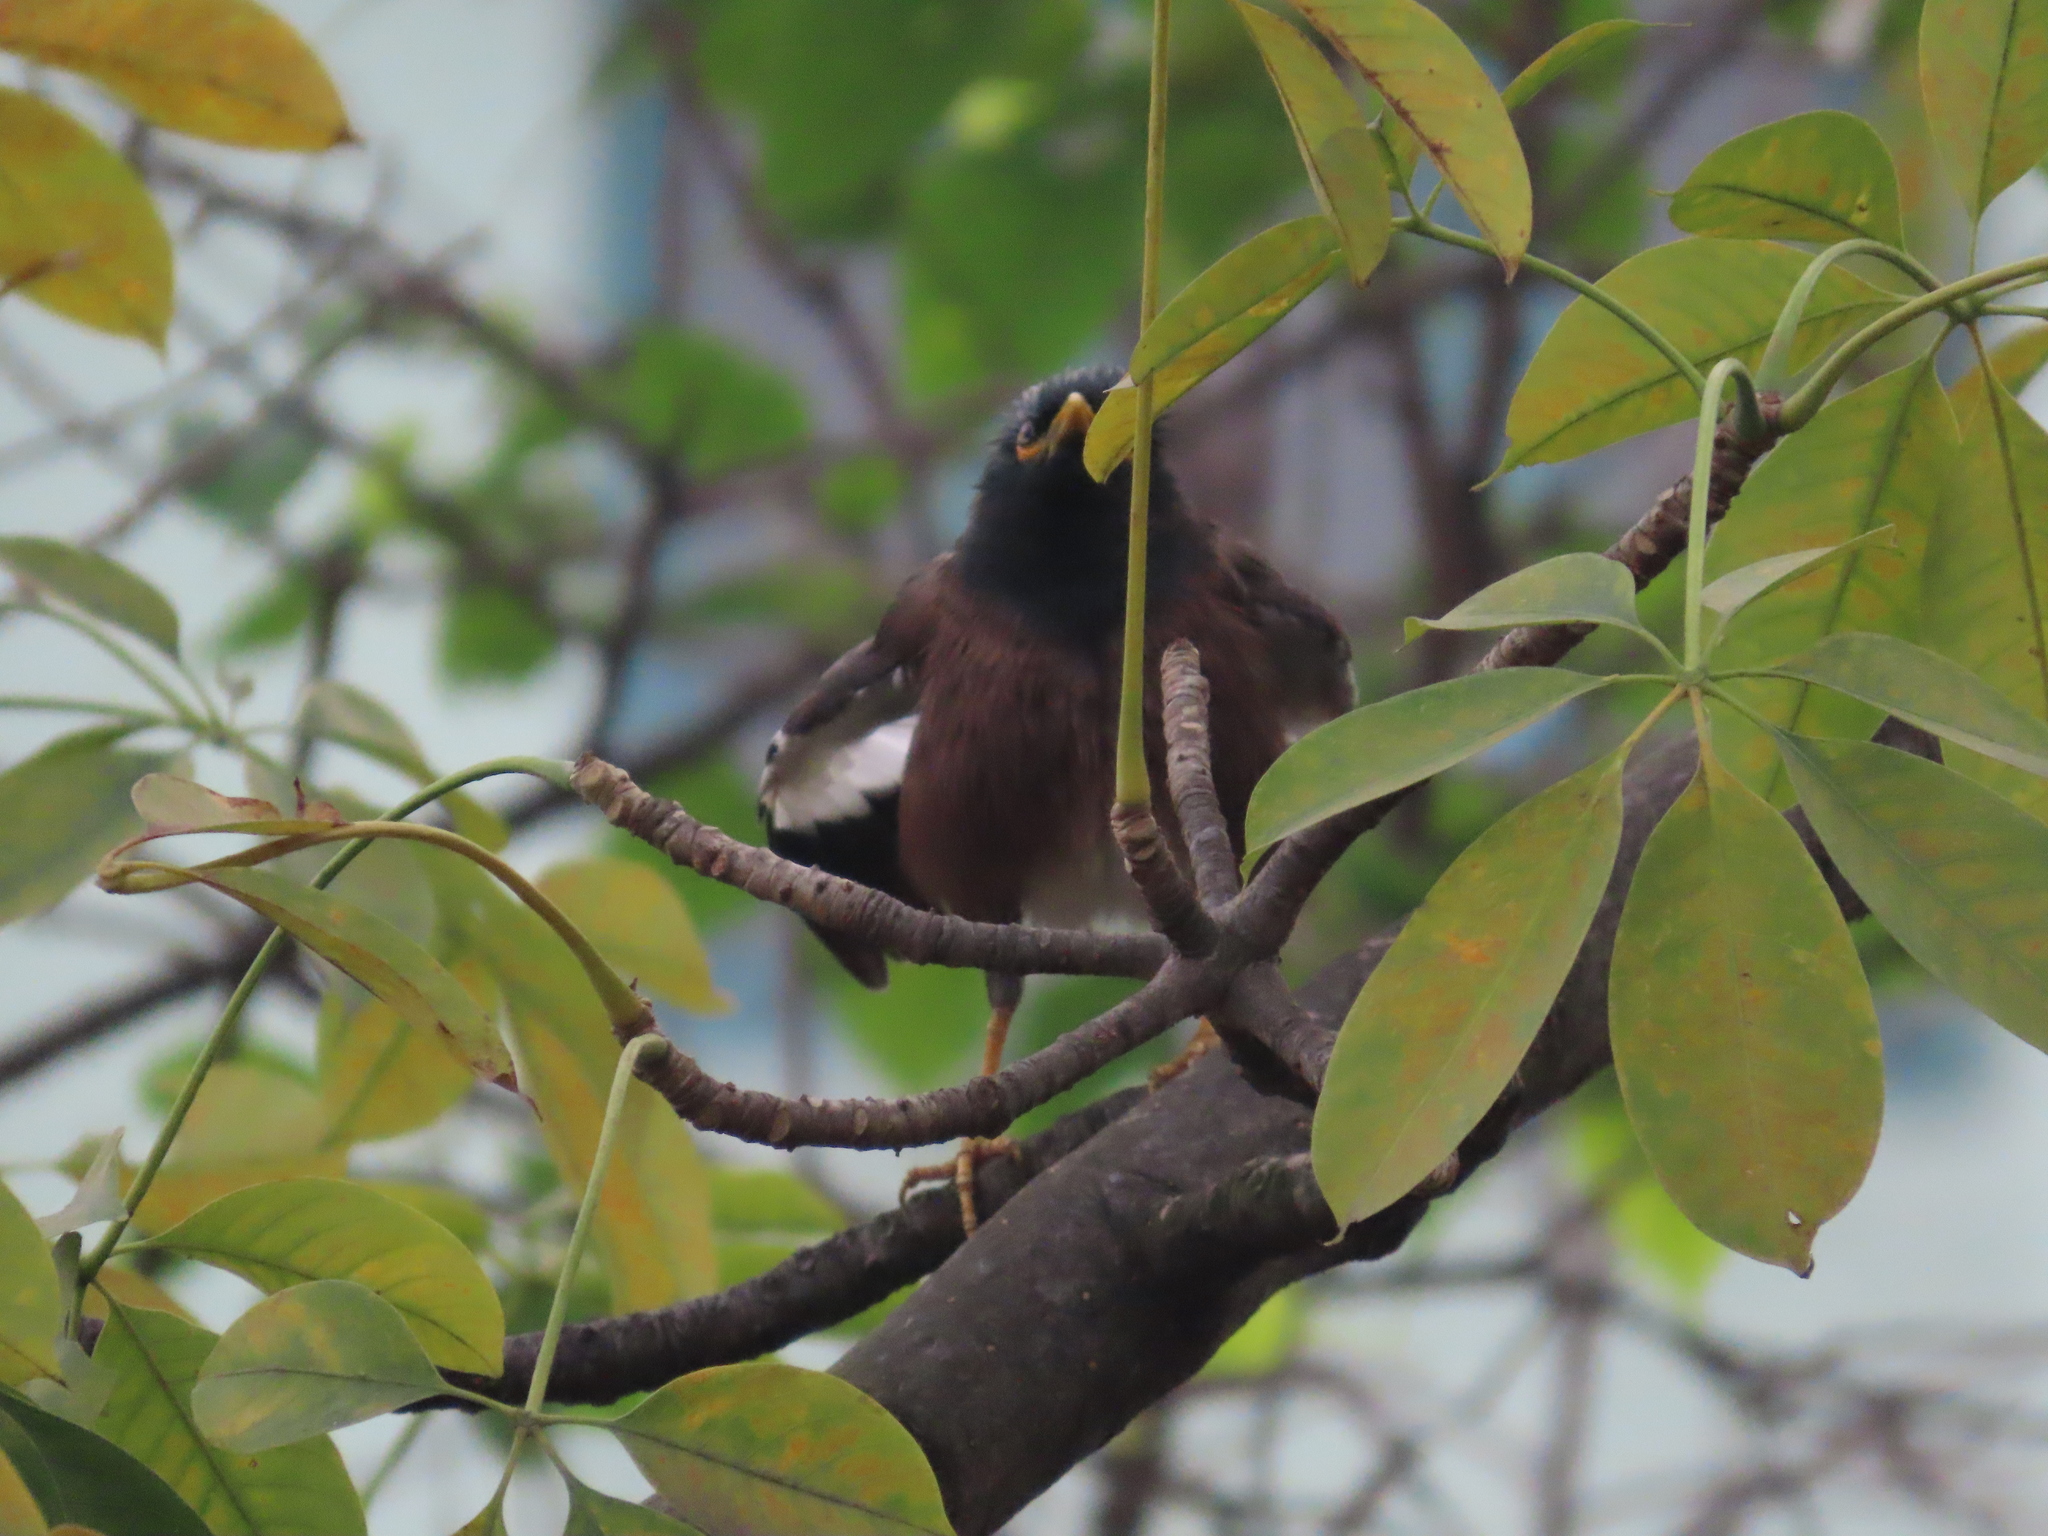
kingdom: Animalia
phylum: Chordata
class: Aves
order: Passeriformes
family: Sturnidae
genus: Acridotheres
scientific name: Acridotheres tristis
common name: Common myna
